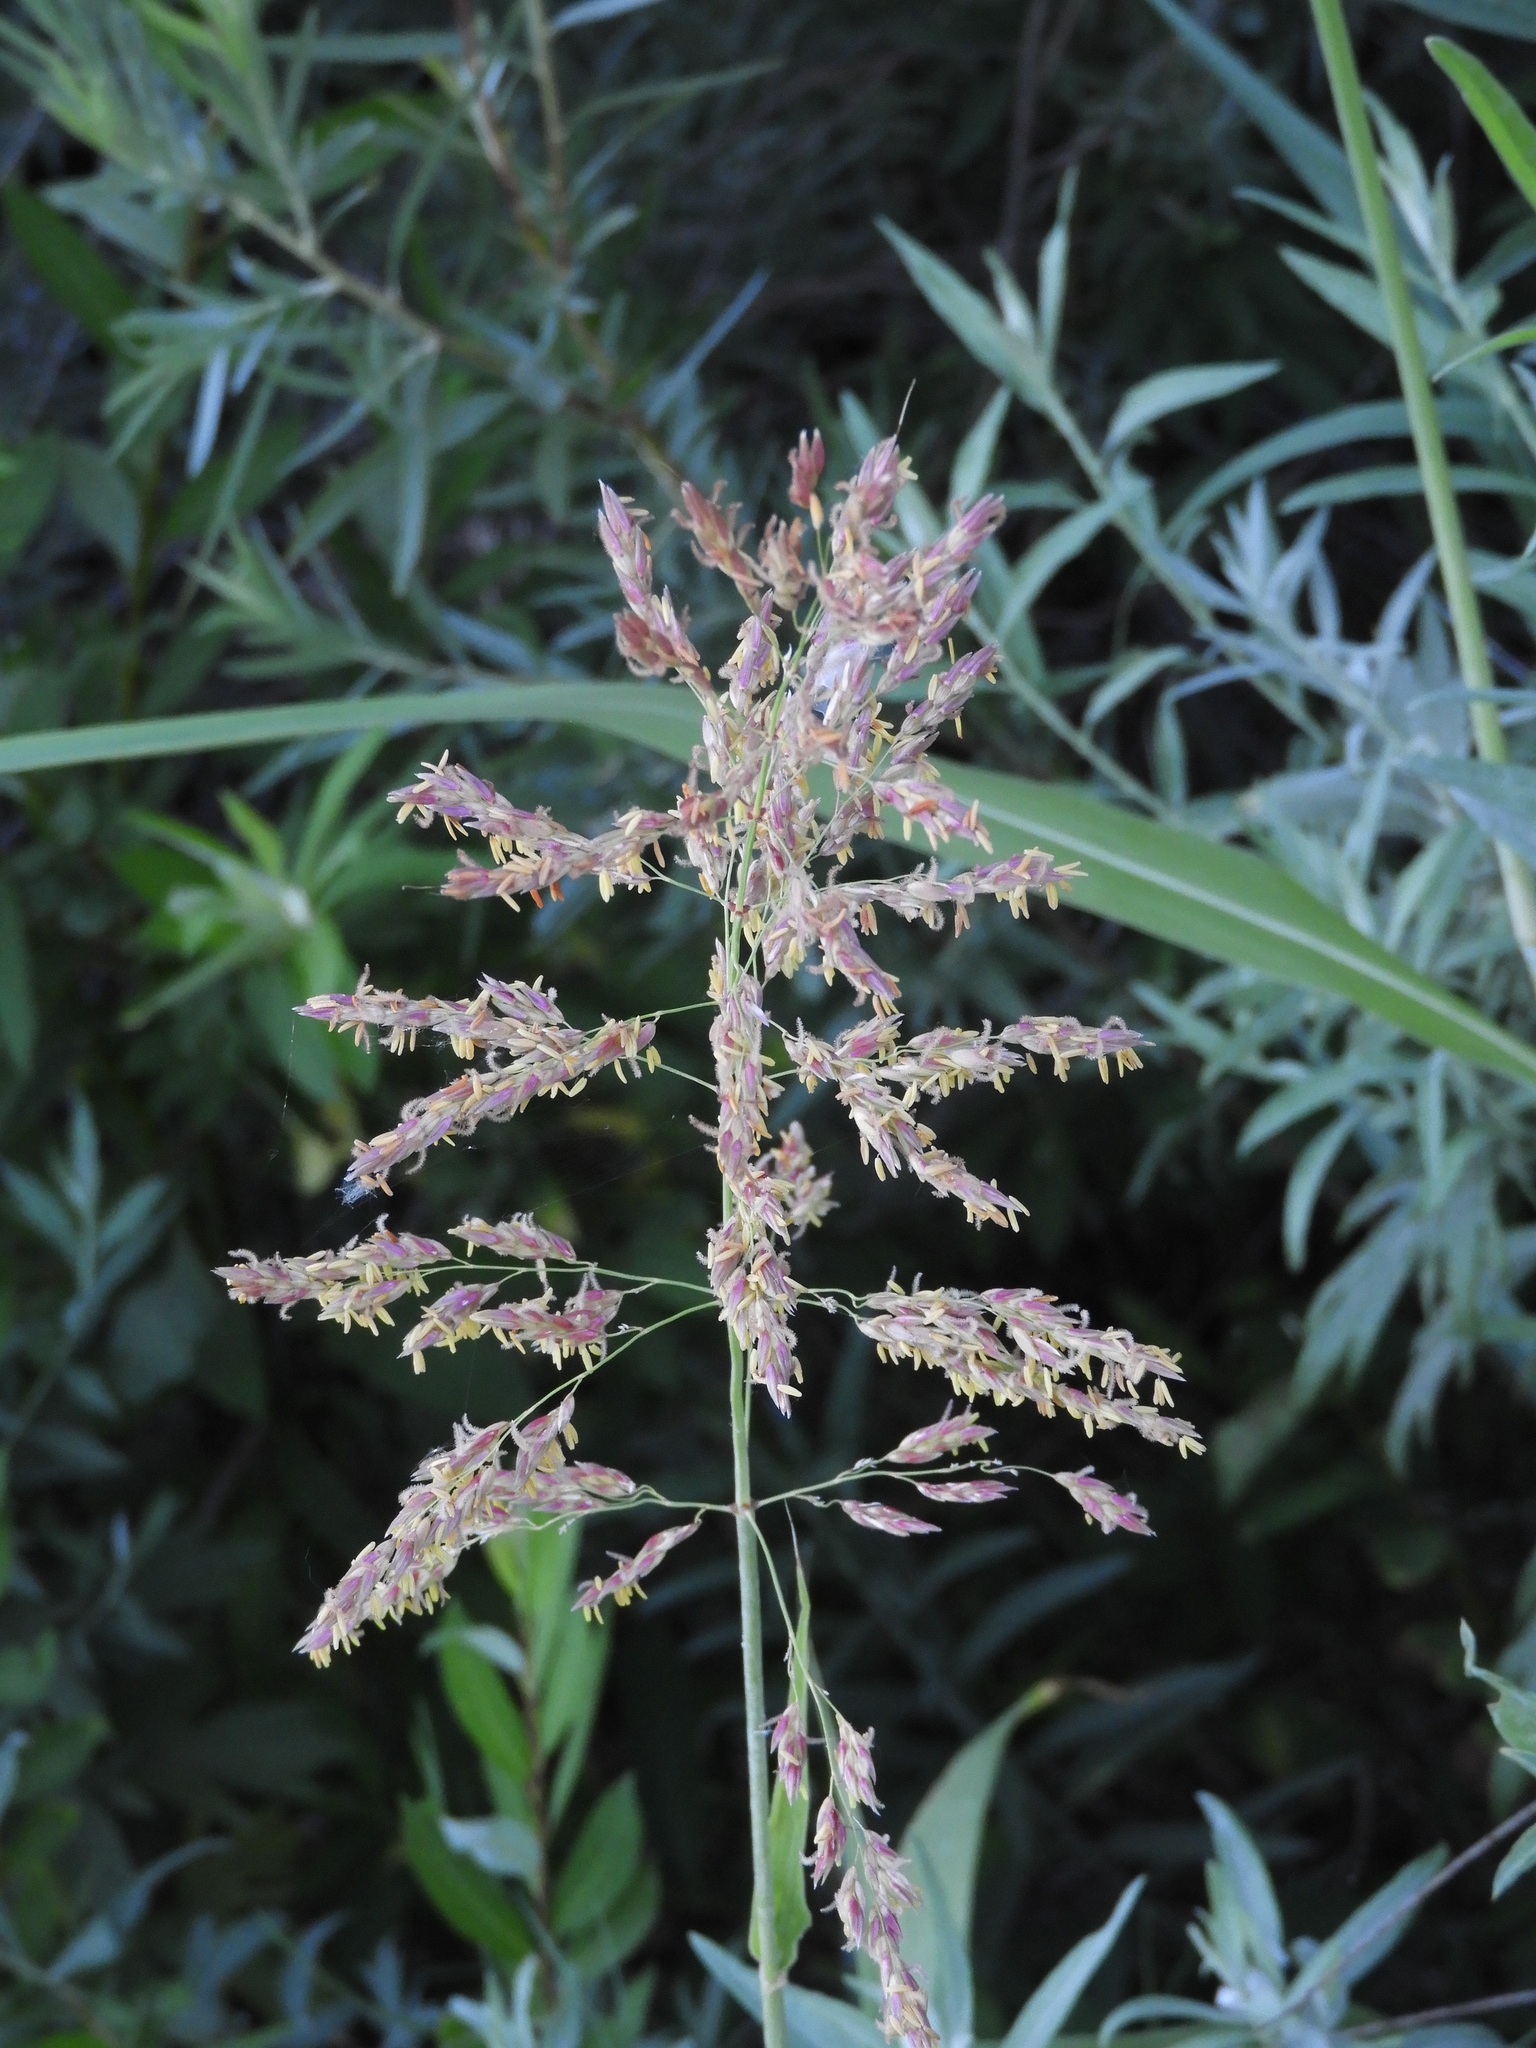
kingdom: Plantae
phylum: Tracheophyta
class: Liliopsida
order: Poales
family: Poaceae
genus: Sorghum
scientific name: Sorghum halepense
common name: Johnson-grass
